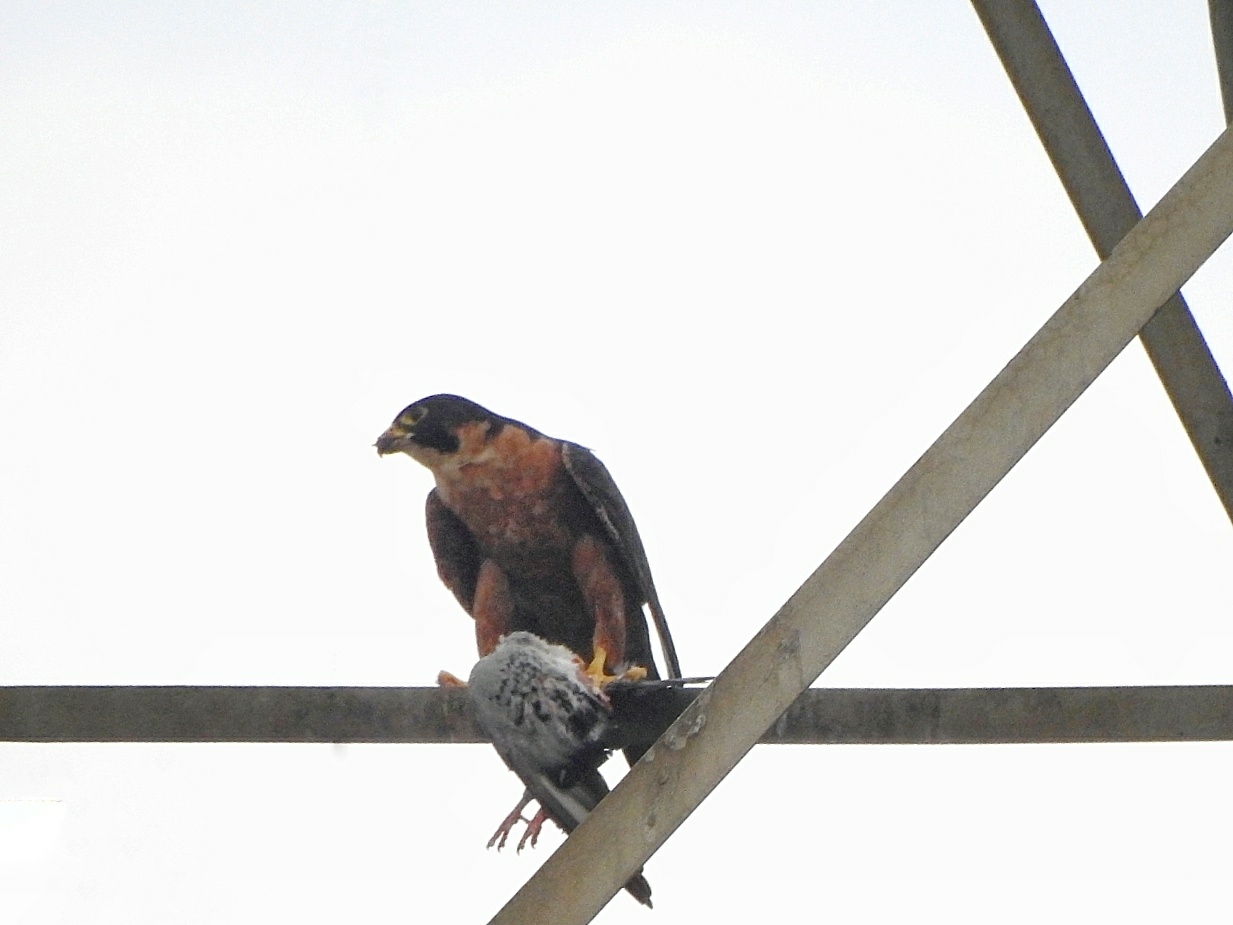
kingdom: Animalia
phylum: Chordata
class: Aves
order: Falconiformes
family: Falconidae
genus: Falco
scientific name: Falco peregrinus
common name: Peregrine falcon
